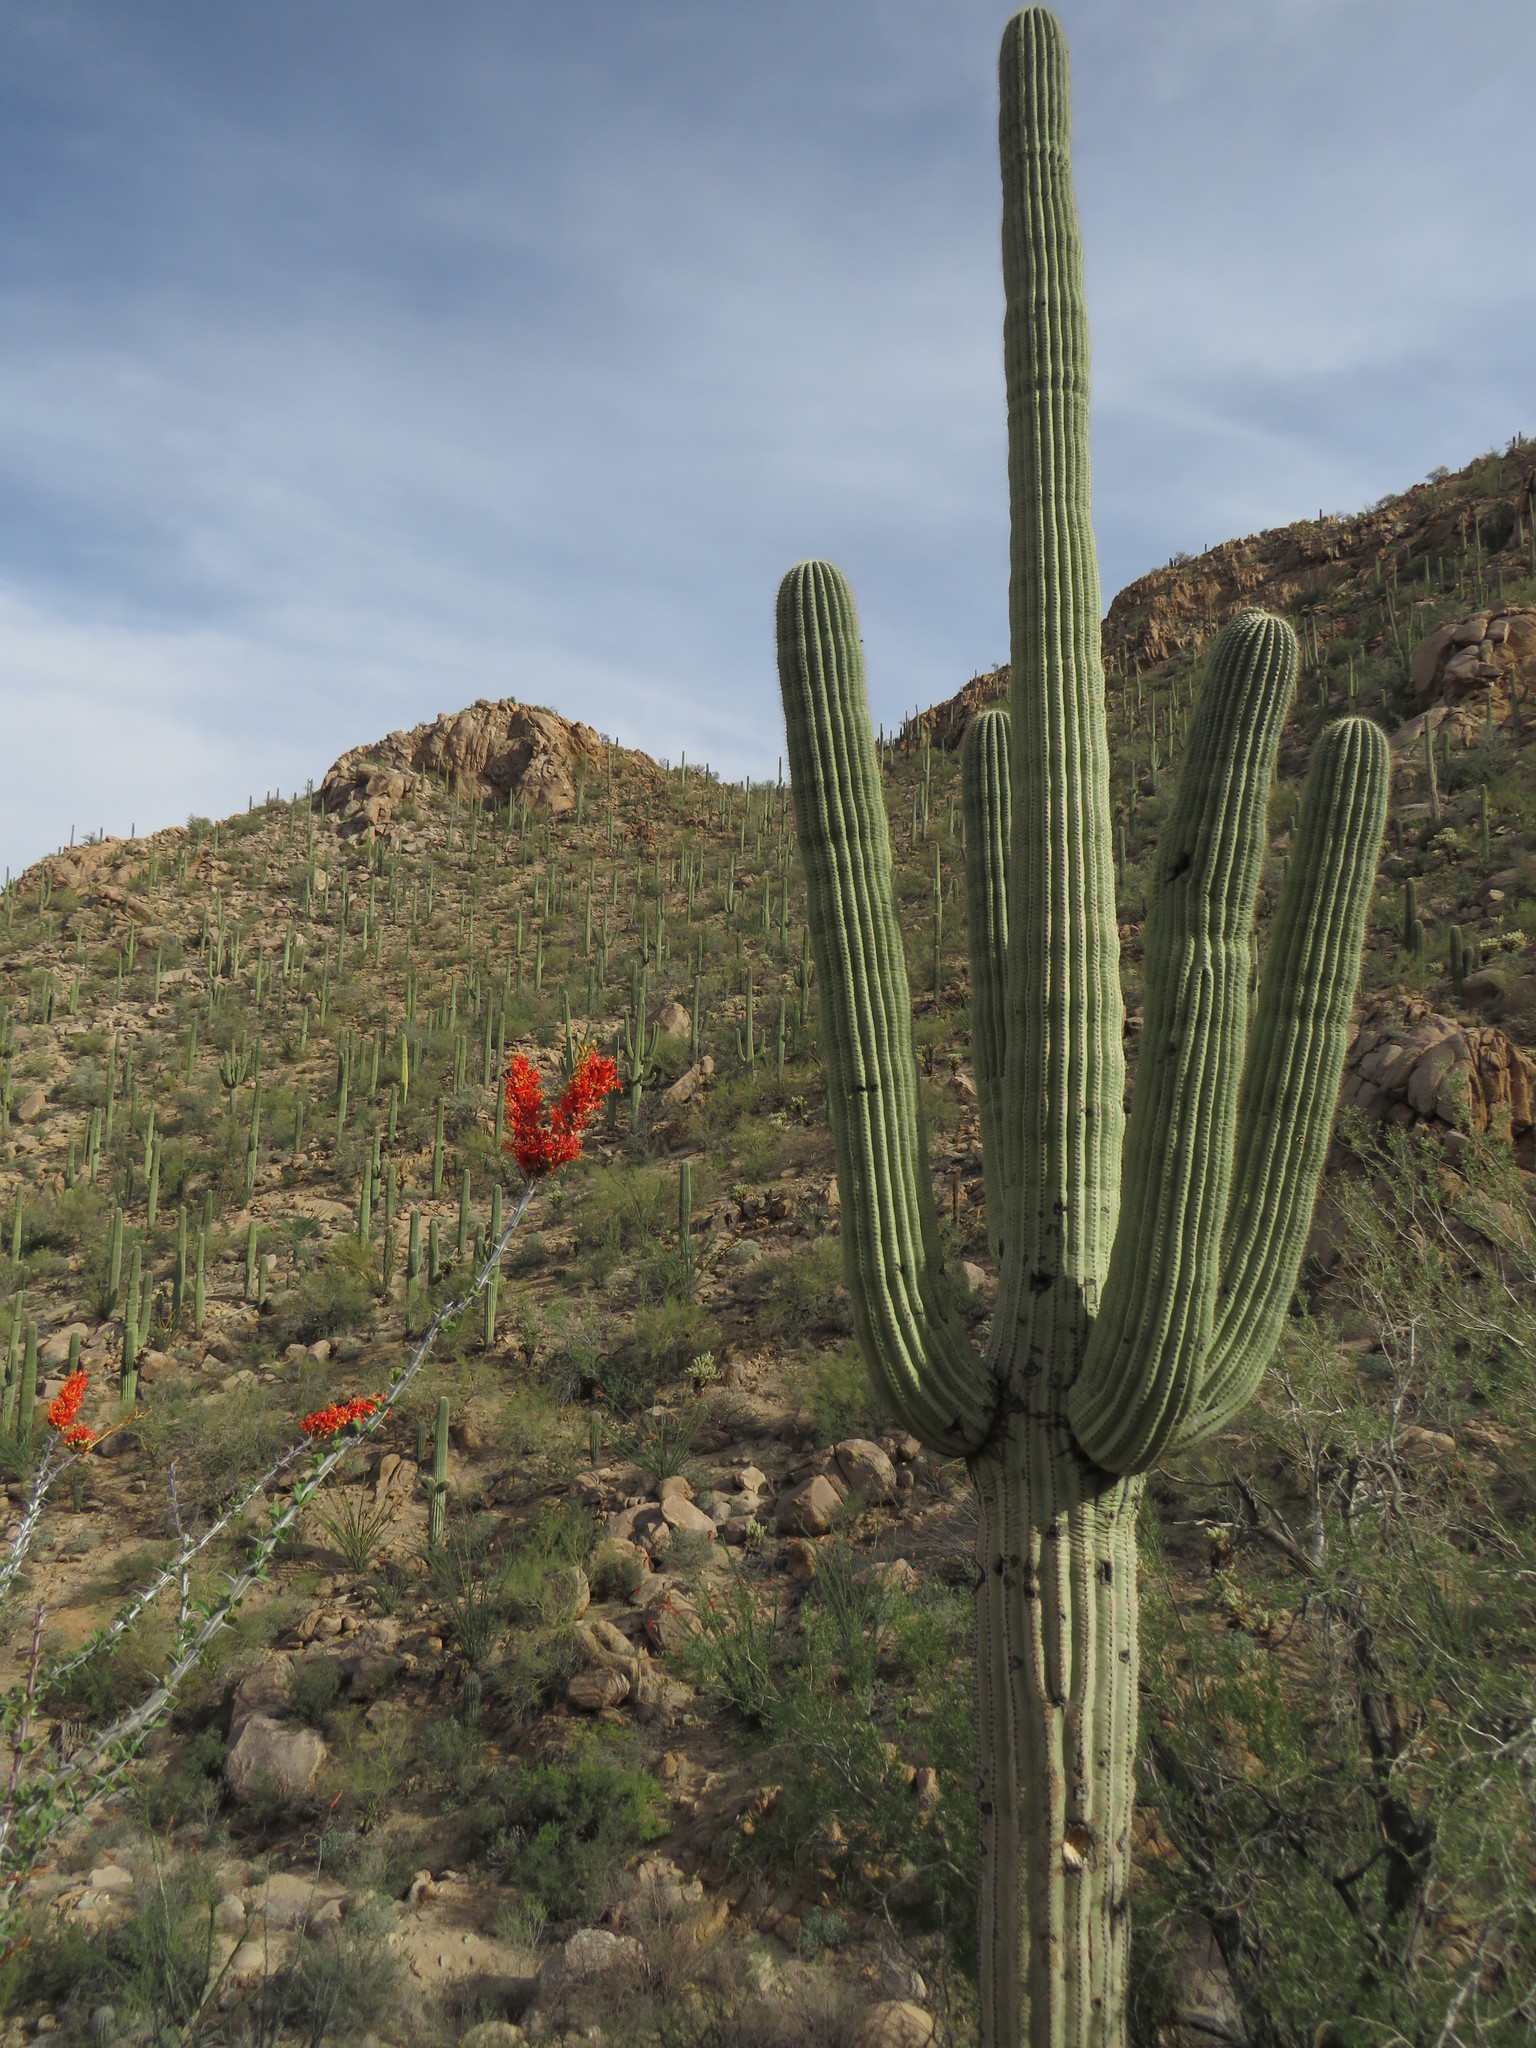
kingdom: Plantae
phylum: Tracheophyta
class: Magnoliopsida
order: Caryophyllales
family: Cactaceae
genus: Carnegiea
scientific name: Carnegiea gigantea
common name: Saguaro
